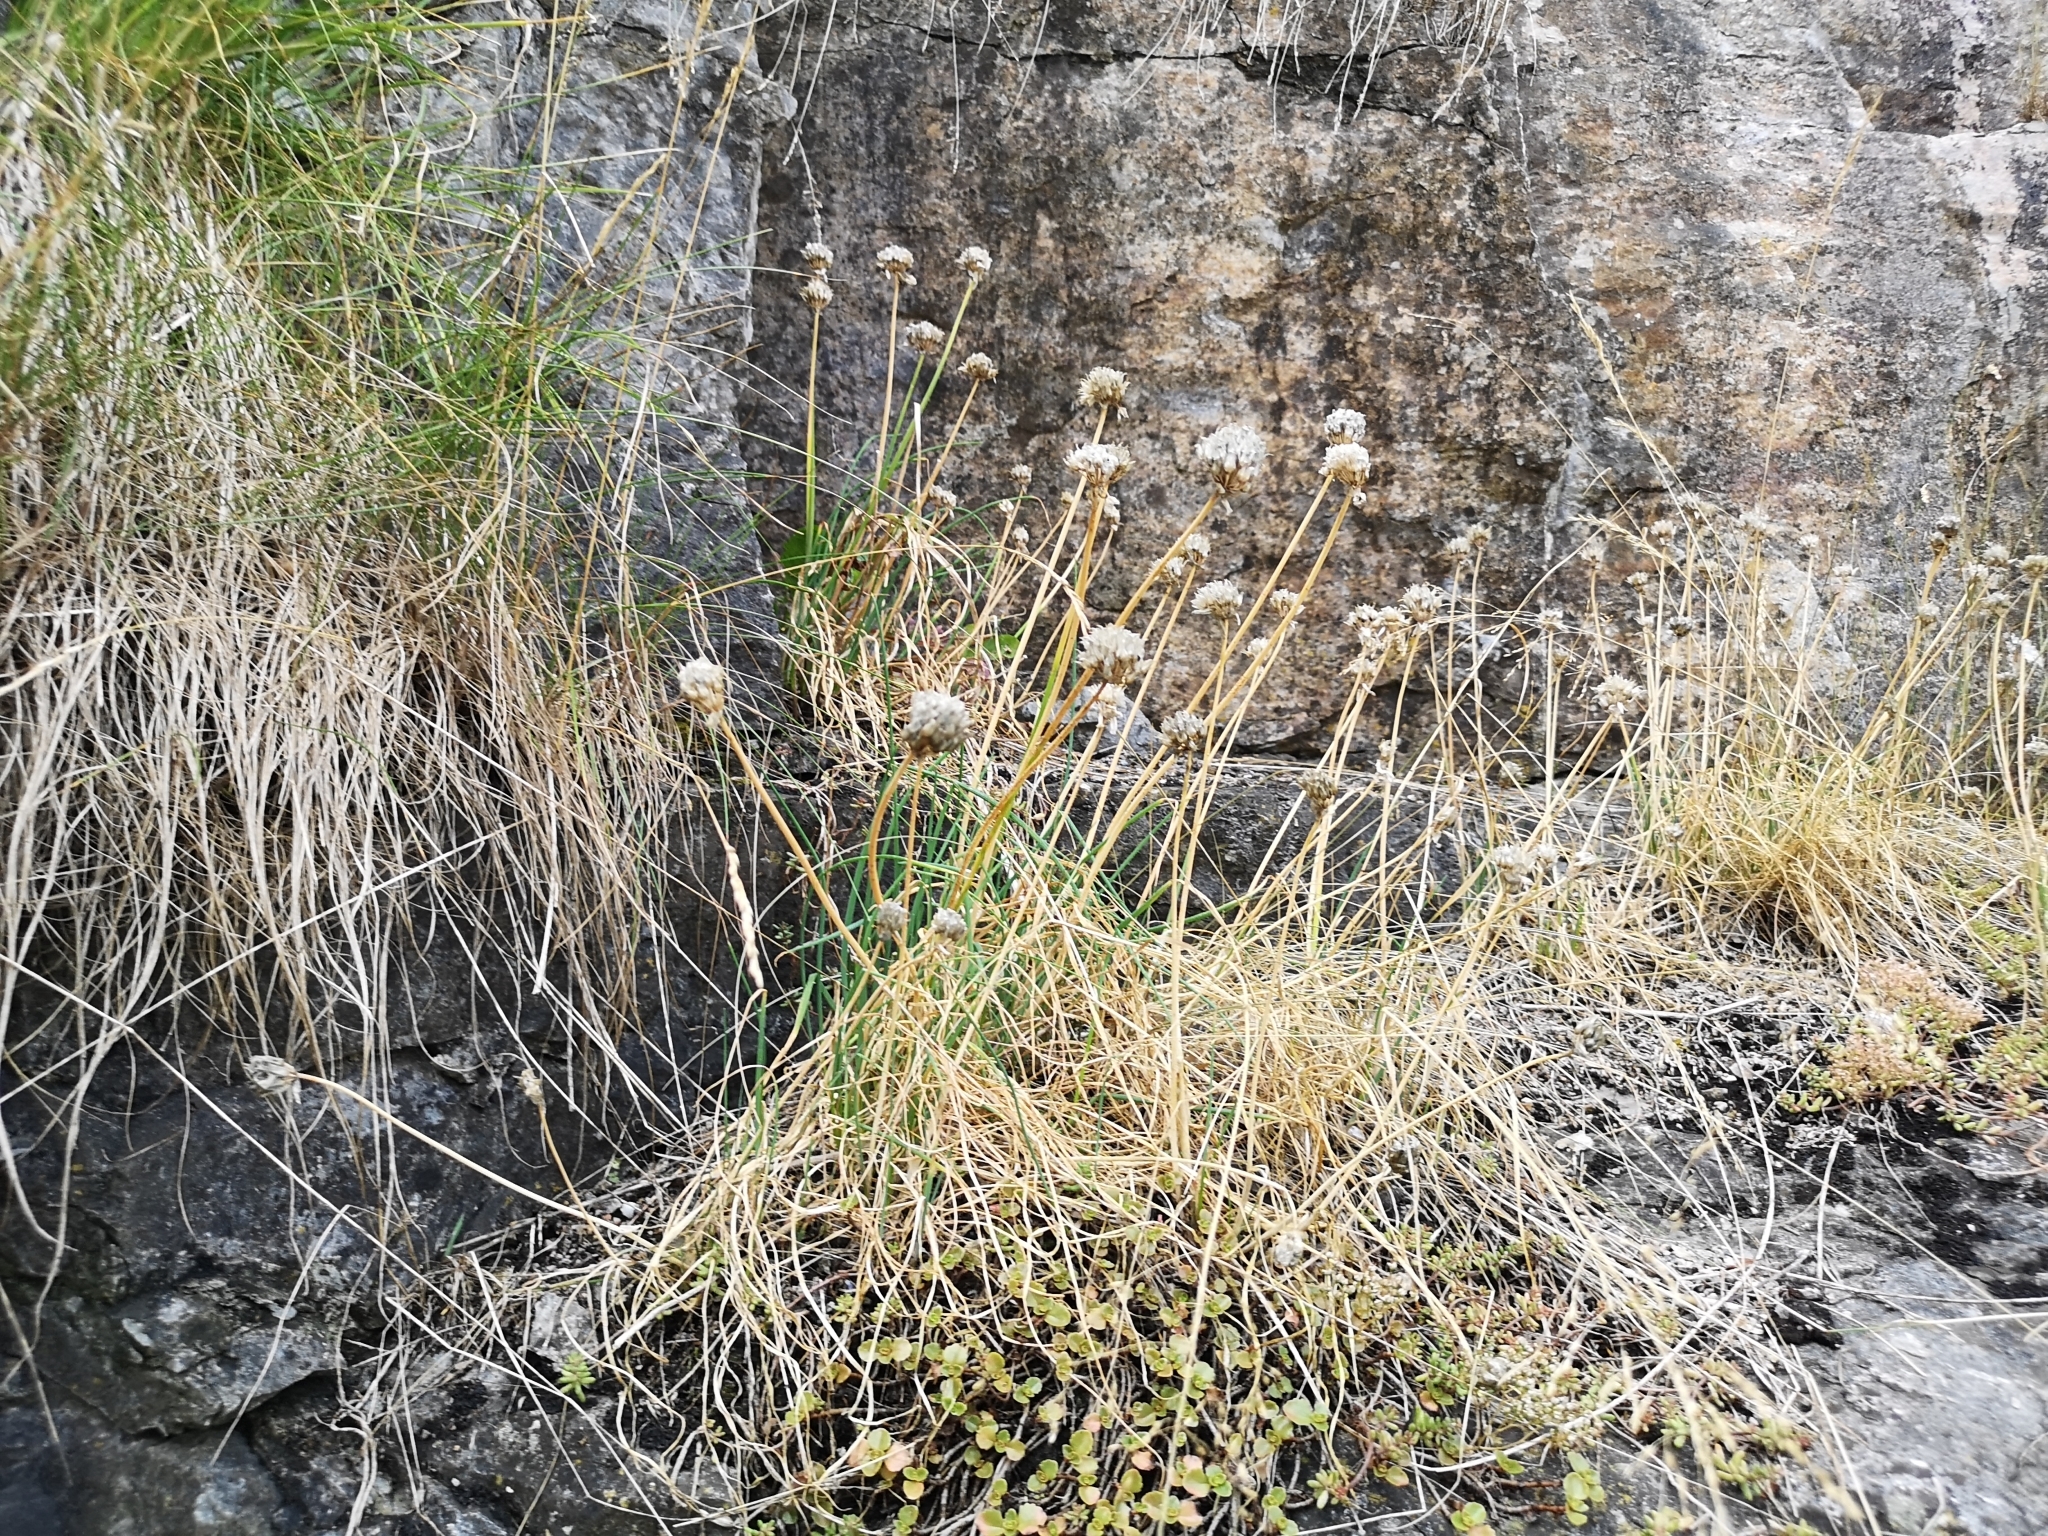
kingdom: Plantae
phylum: Tracheophyta
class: Liliopsida
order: Asparagales
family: Amaryllidaceae
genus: Allium
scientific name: Allium schoenoprasum
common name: Chives
